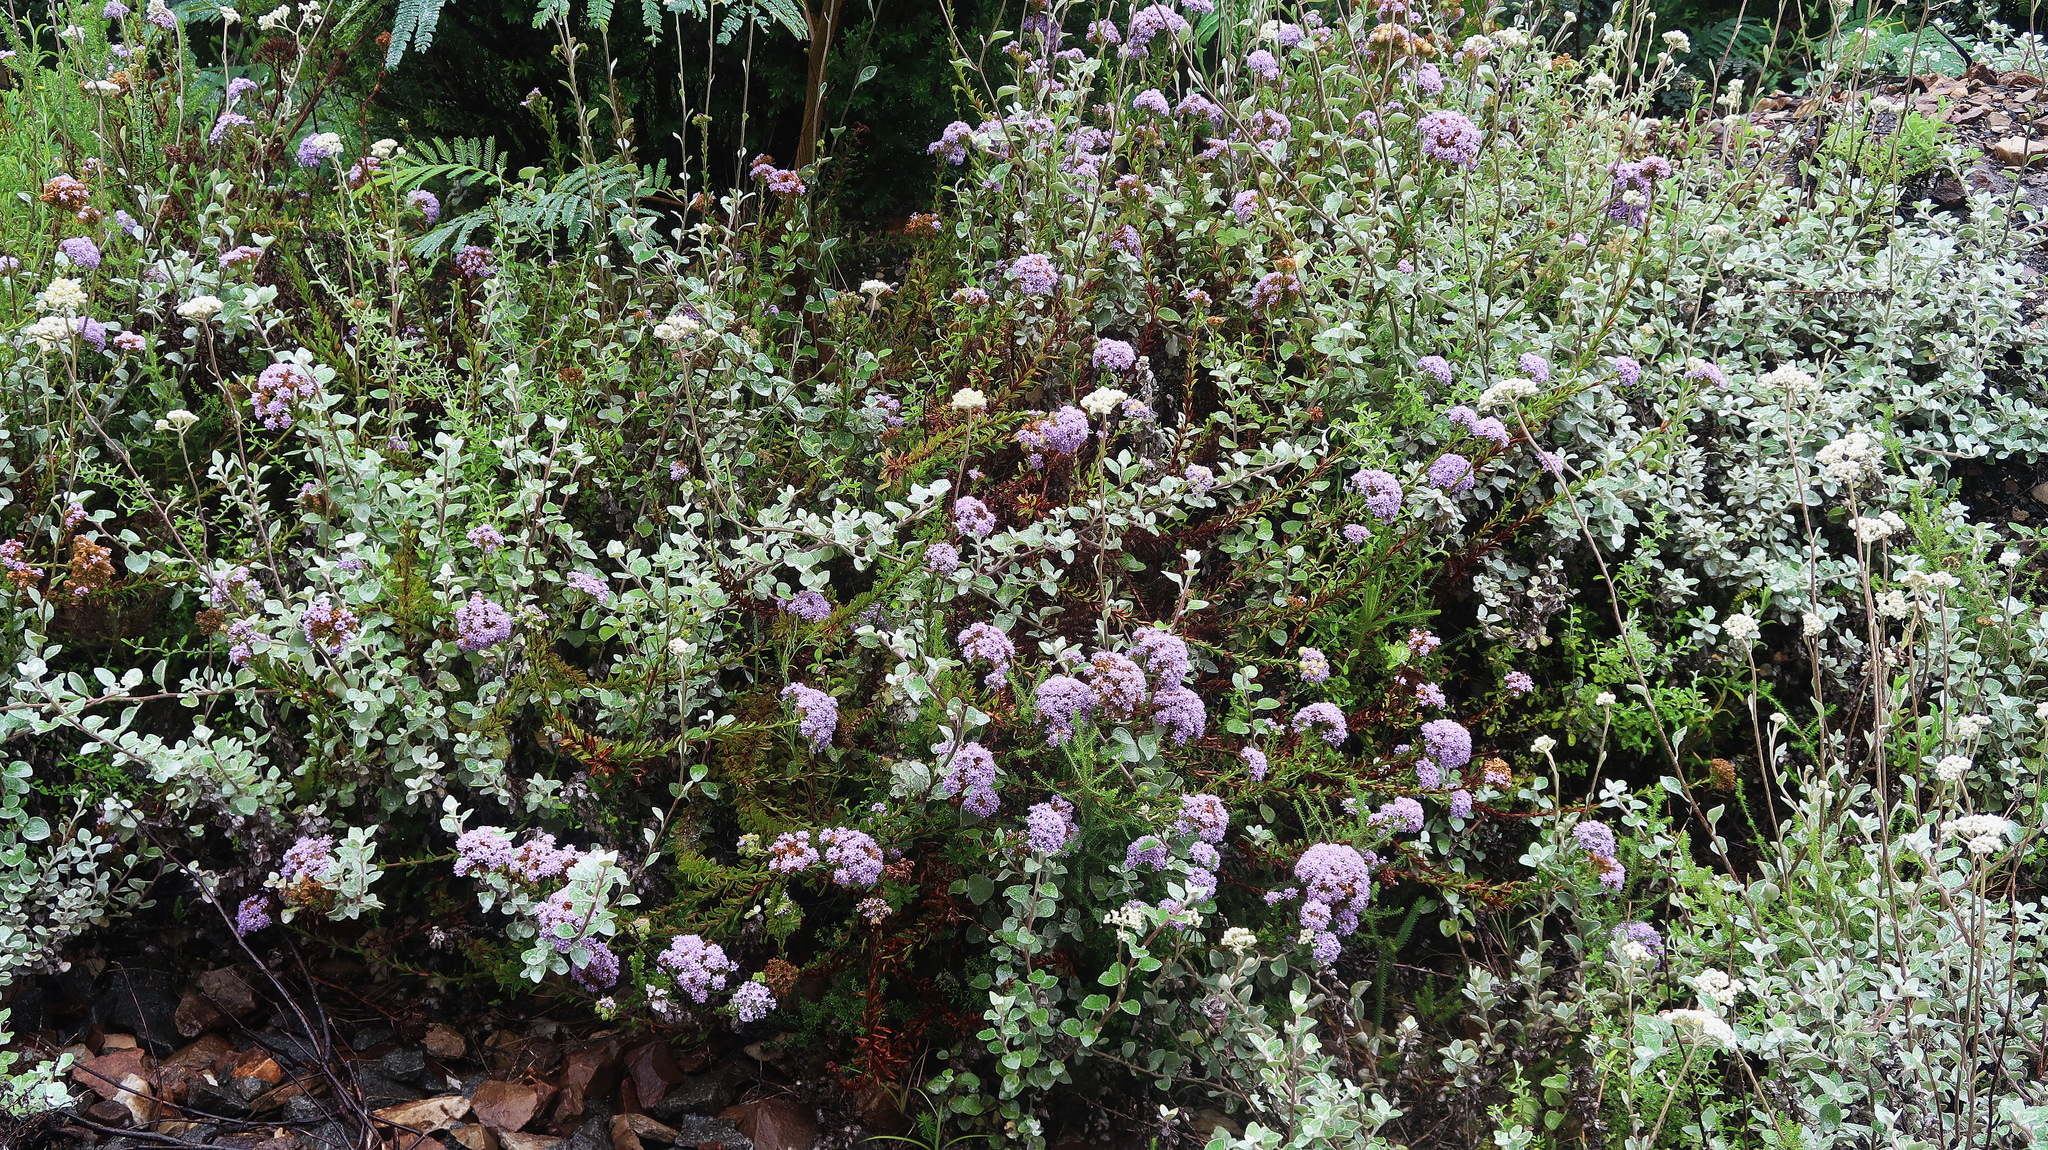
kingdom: Plantae
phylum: Tracheophyta
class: Magnoliopsida
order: Lamiales
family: Scrophulariaceae
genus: Pseudoselago
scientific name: Pseudoselago langebergensis
